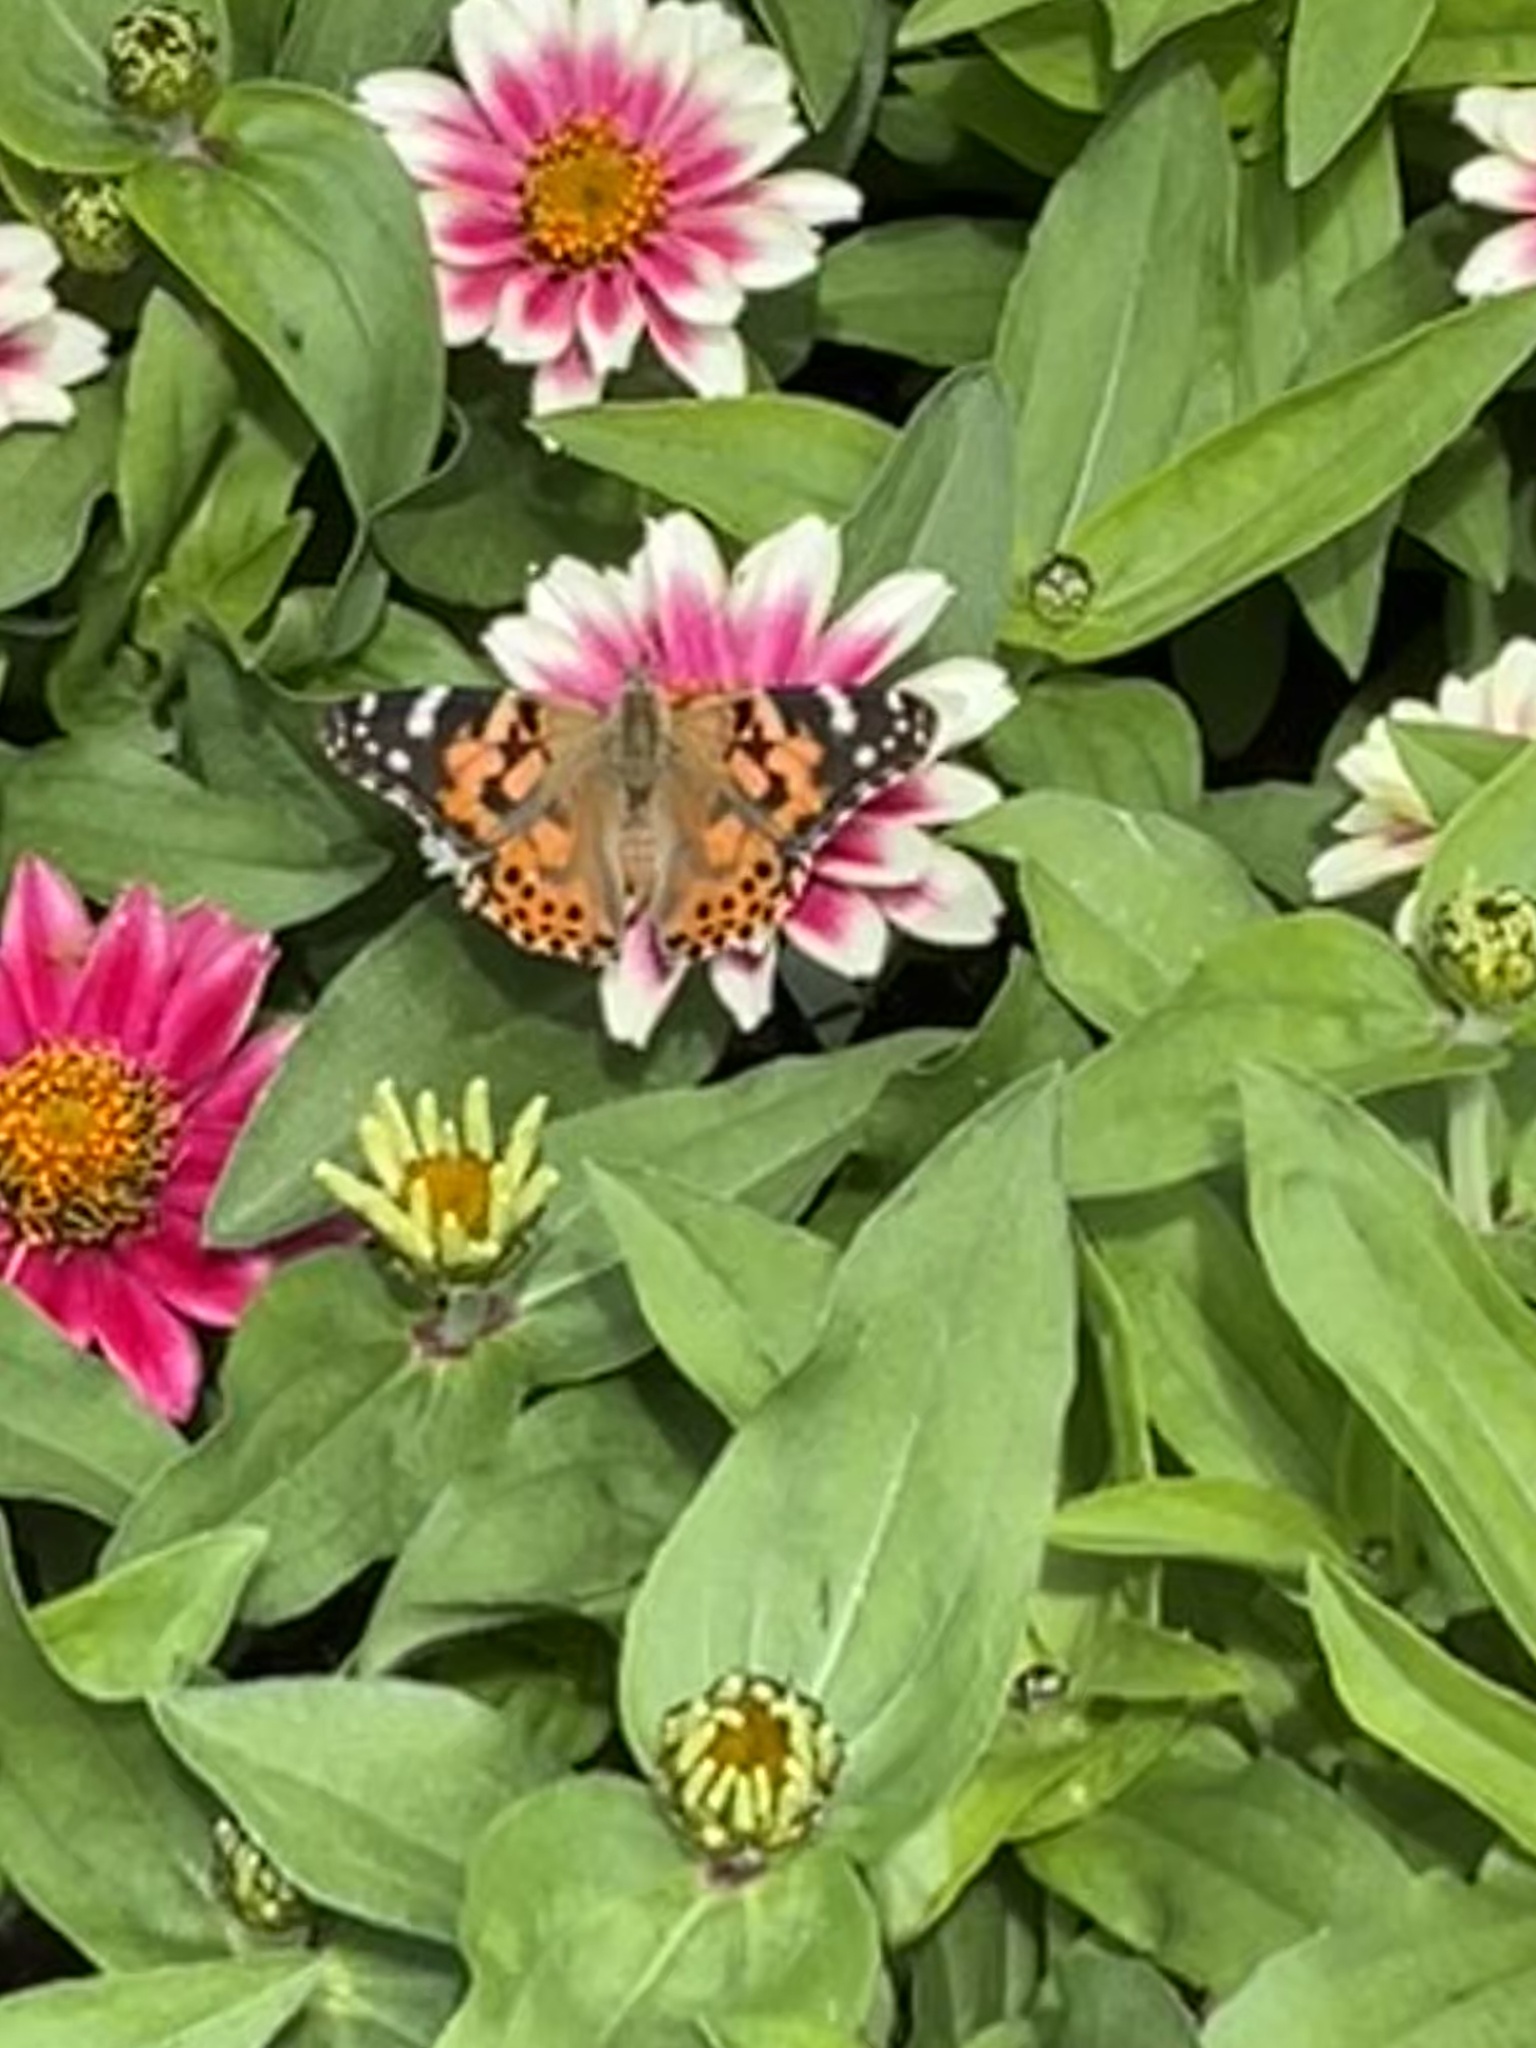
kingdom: Animalia
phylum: Arthropoda
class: Insecta
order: Lepidoptera
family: Nymphalidae
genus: Vanessa
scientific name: Vanessa cardui
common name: Painted lady
